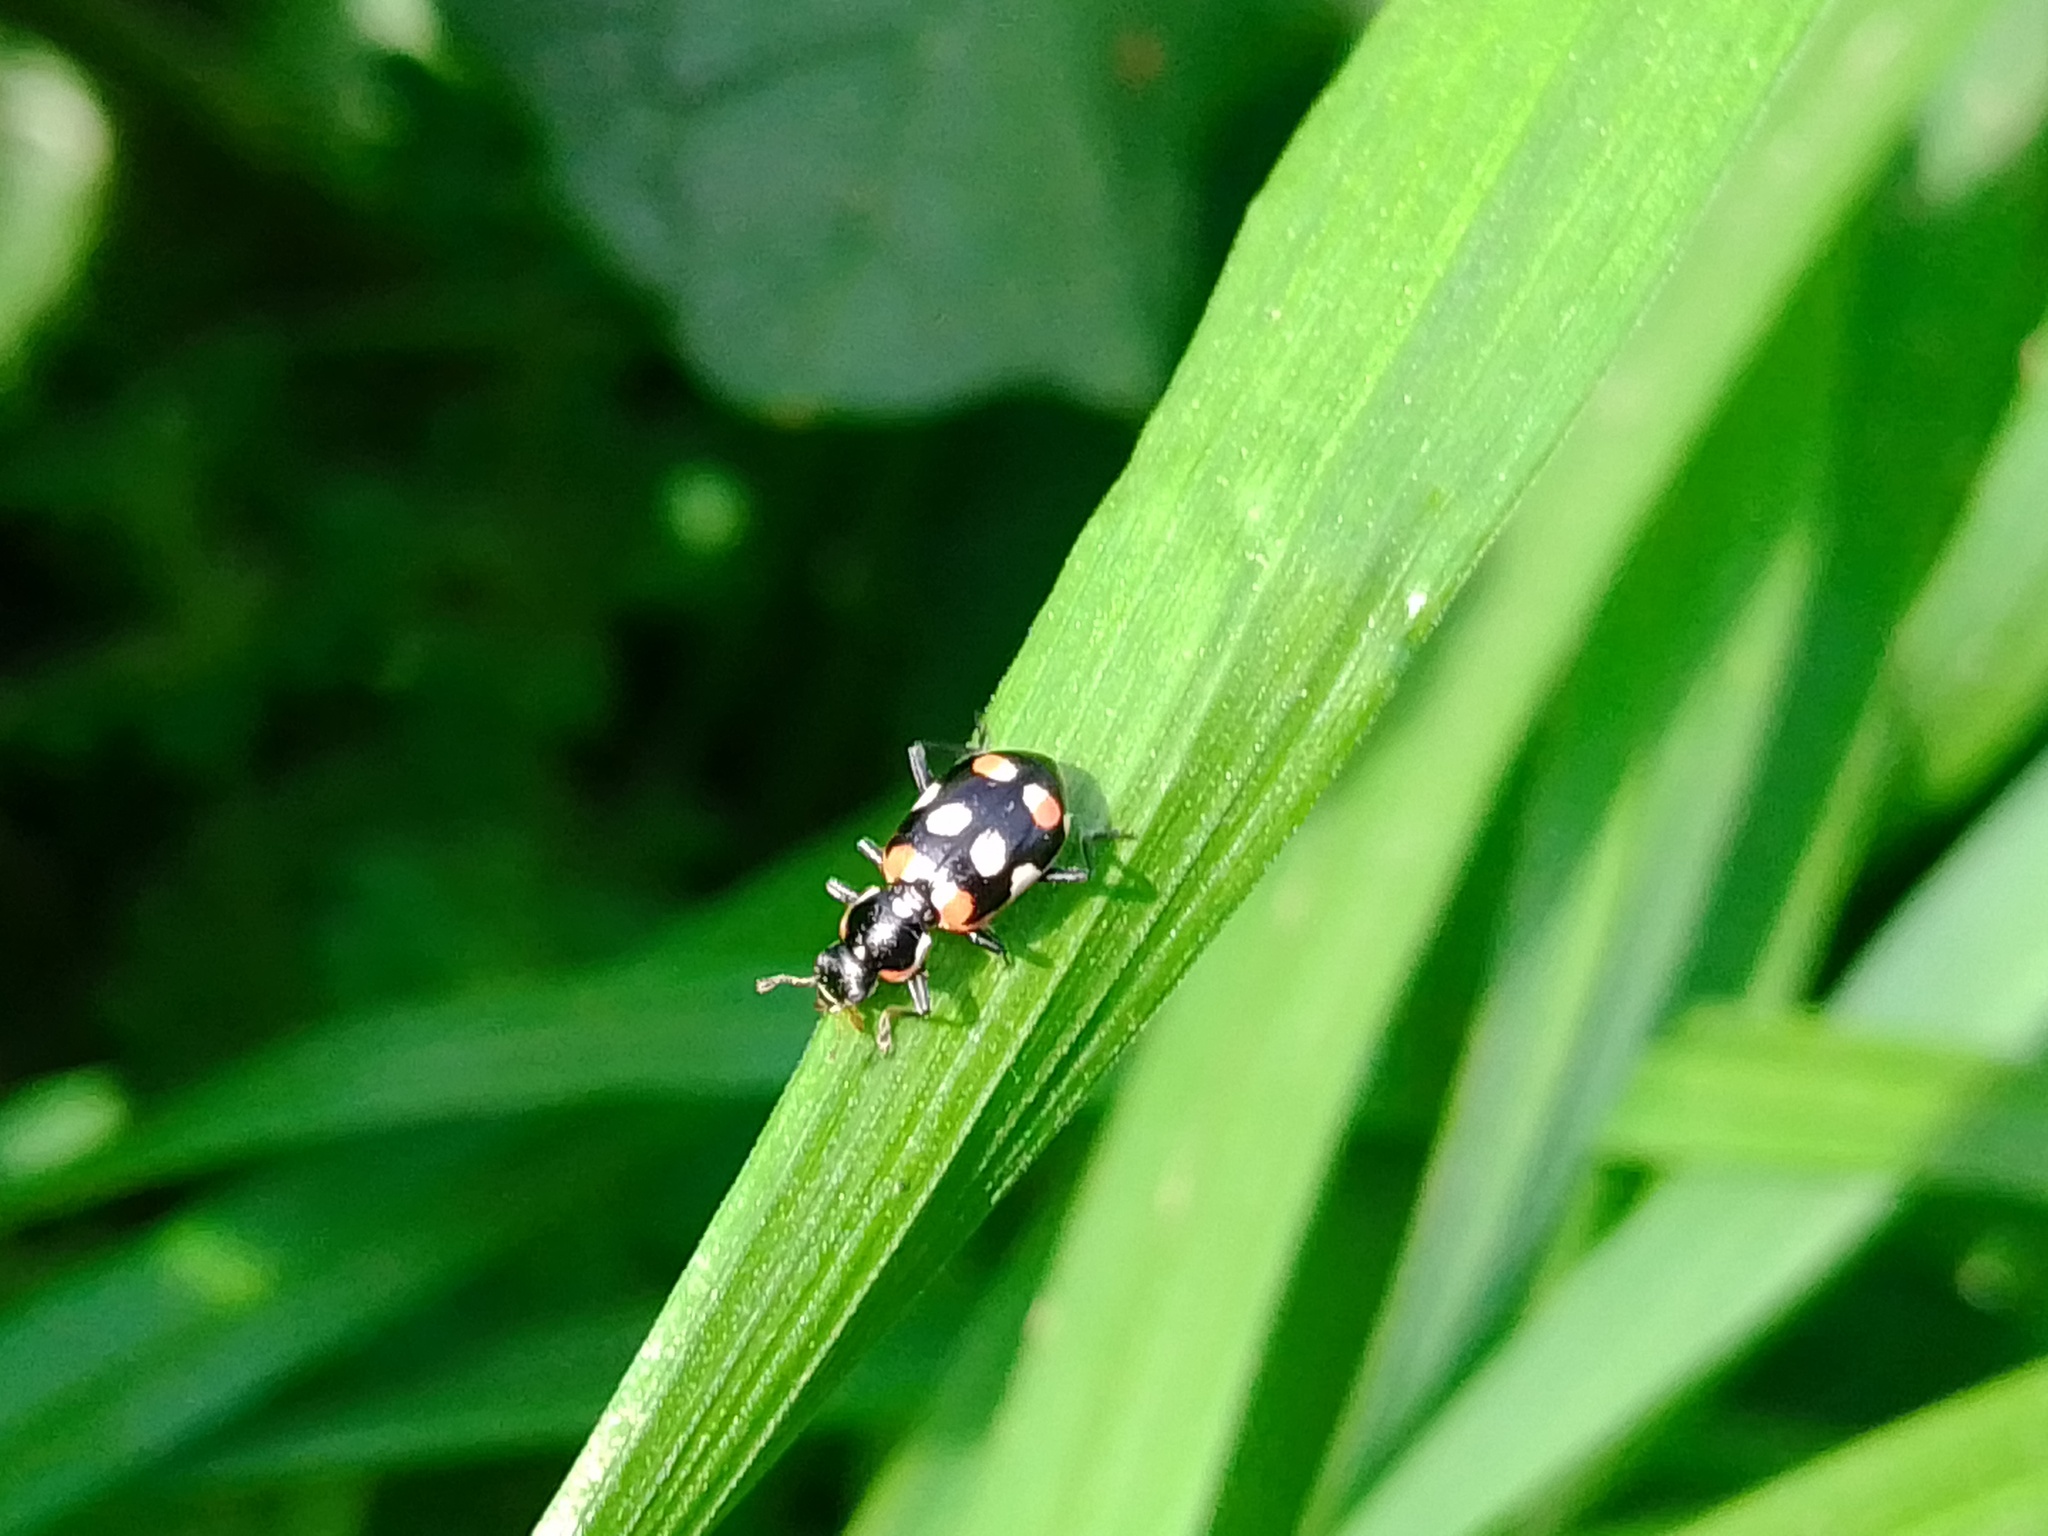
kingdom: Animalia
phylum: Arthropoda
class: Insecta
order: Coleoptera
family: Coccinellidae
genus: Eriopis
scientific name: Eriopis connexa
